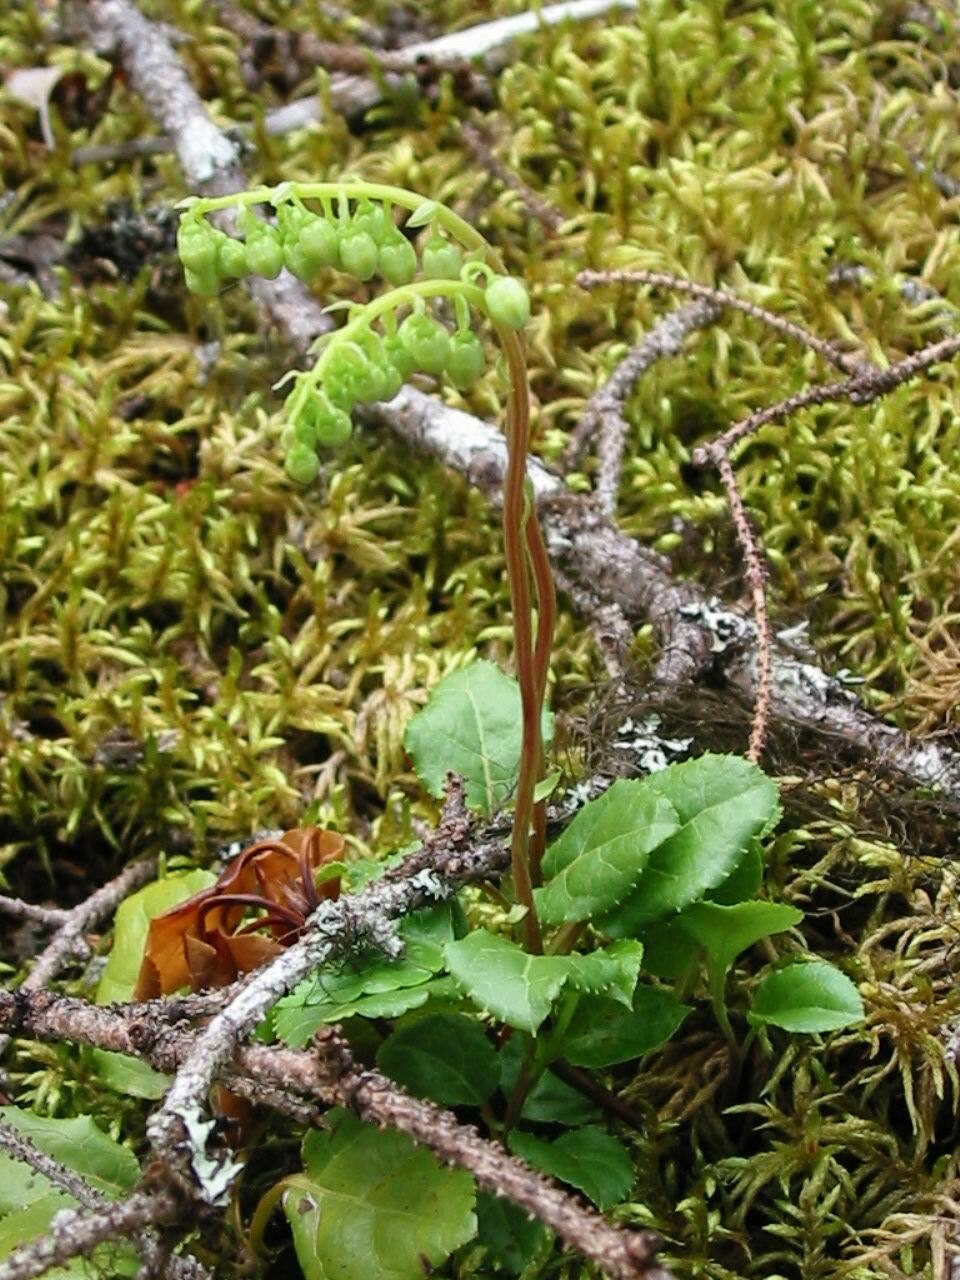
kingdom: Plantae
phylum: Tracheophyta
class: Magnoliopsida
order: Ericales
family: Ericaceae
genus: Orthilia
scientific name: Orthilia secunda
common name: One-sided orthilia
